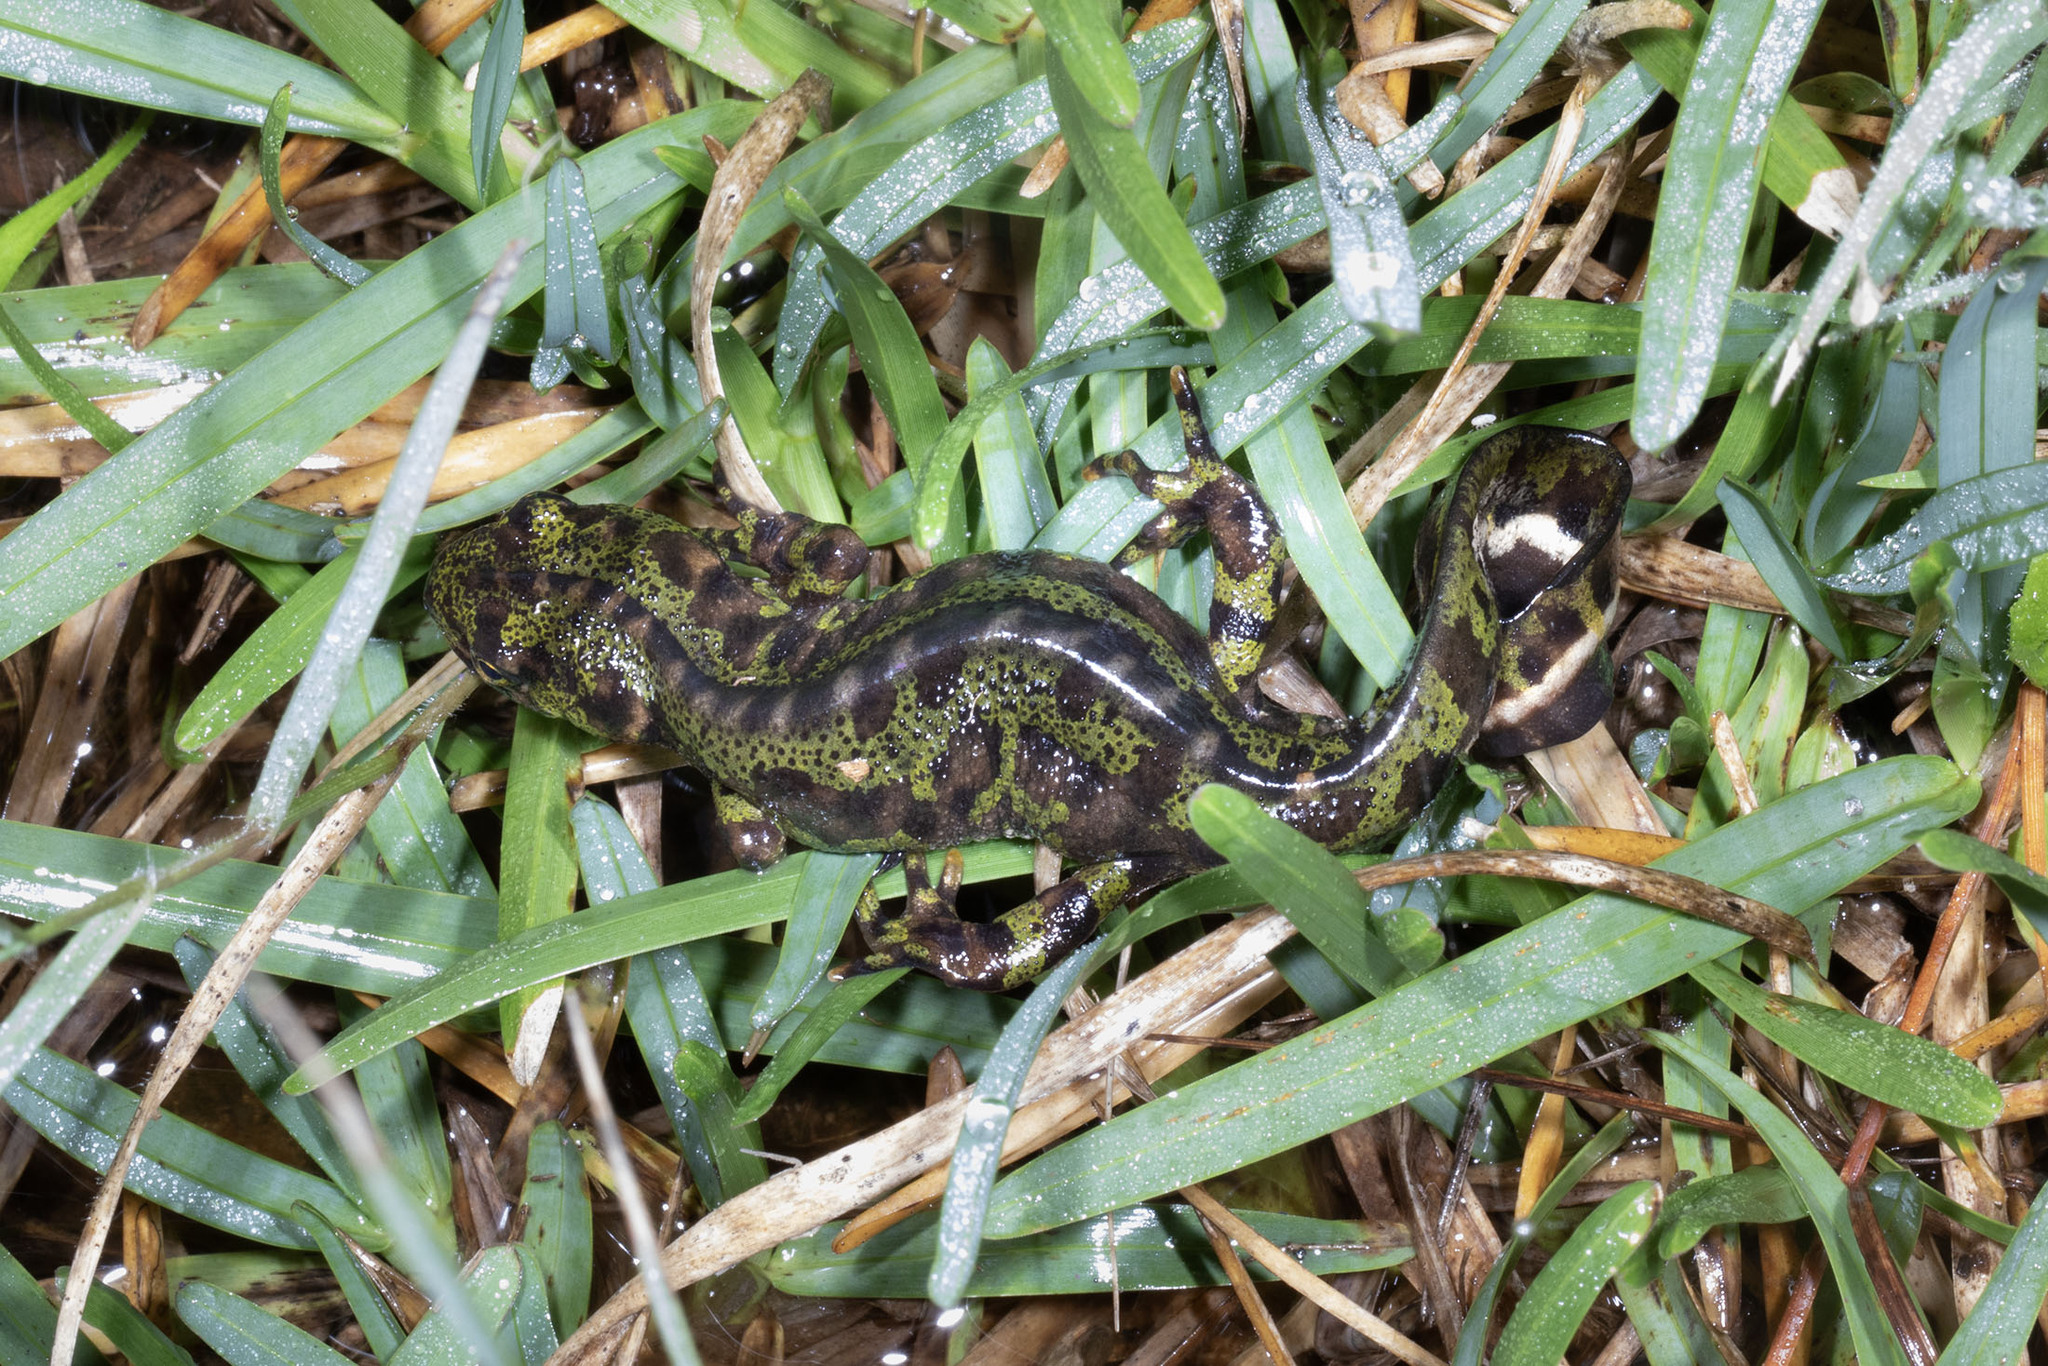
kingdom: Animalia
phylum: Chordata
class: Amphibia
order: Caudata
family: Salamandridae
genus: Triturus
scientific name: Triturus marmoratus
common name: Marbled newt
